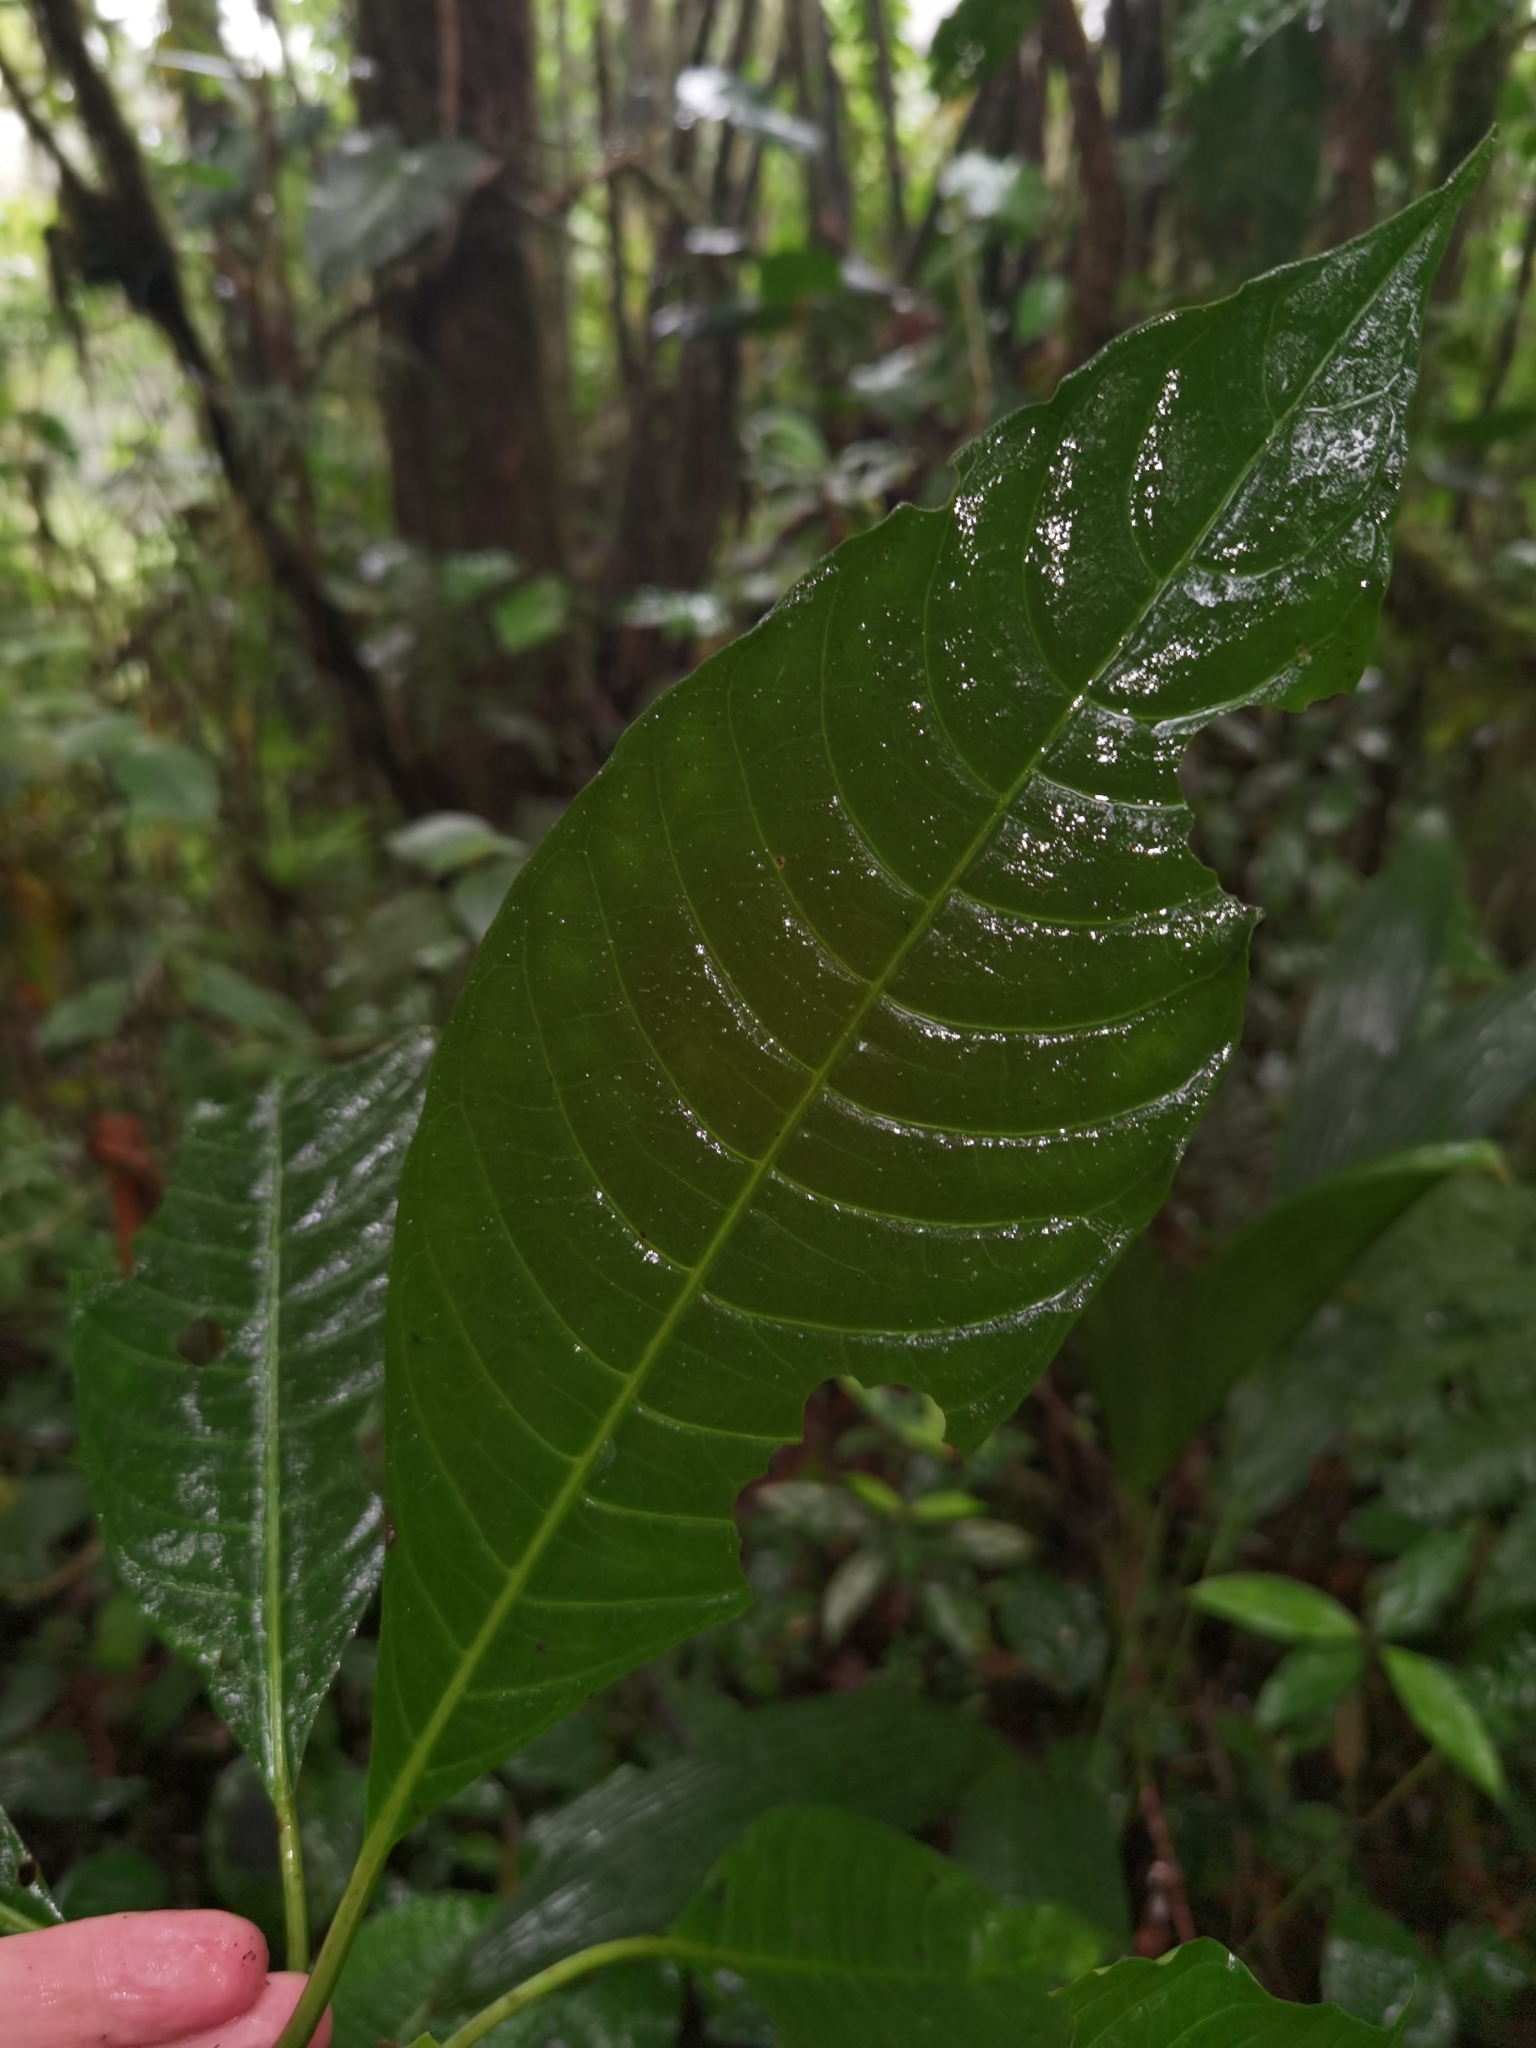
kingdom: Plantae
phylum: Tracheophyta
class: Magnoliopsida
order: Gentianales
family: Rubiaceae
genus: Hoffmannia
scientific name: Hoffmannia pittieri
